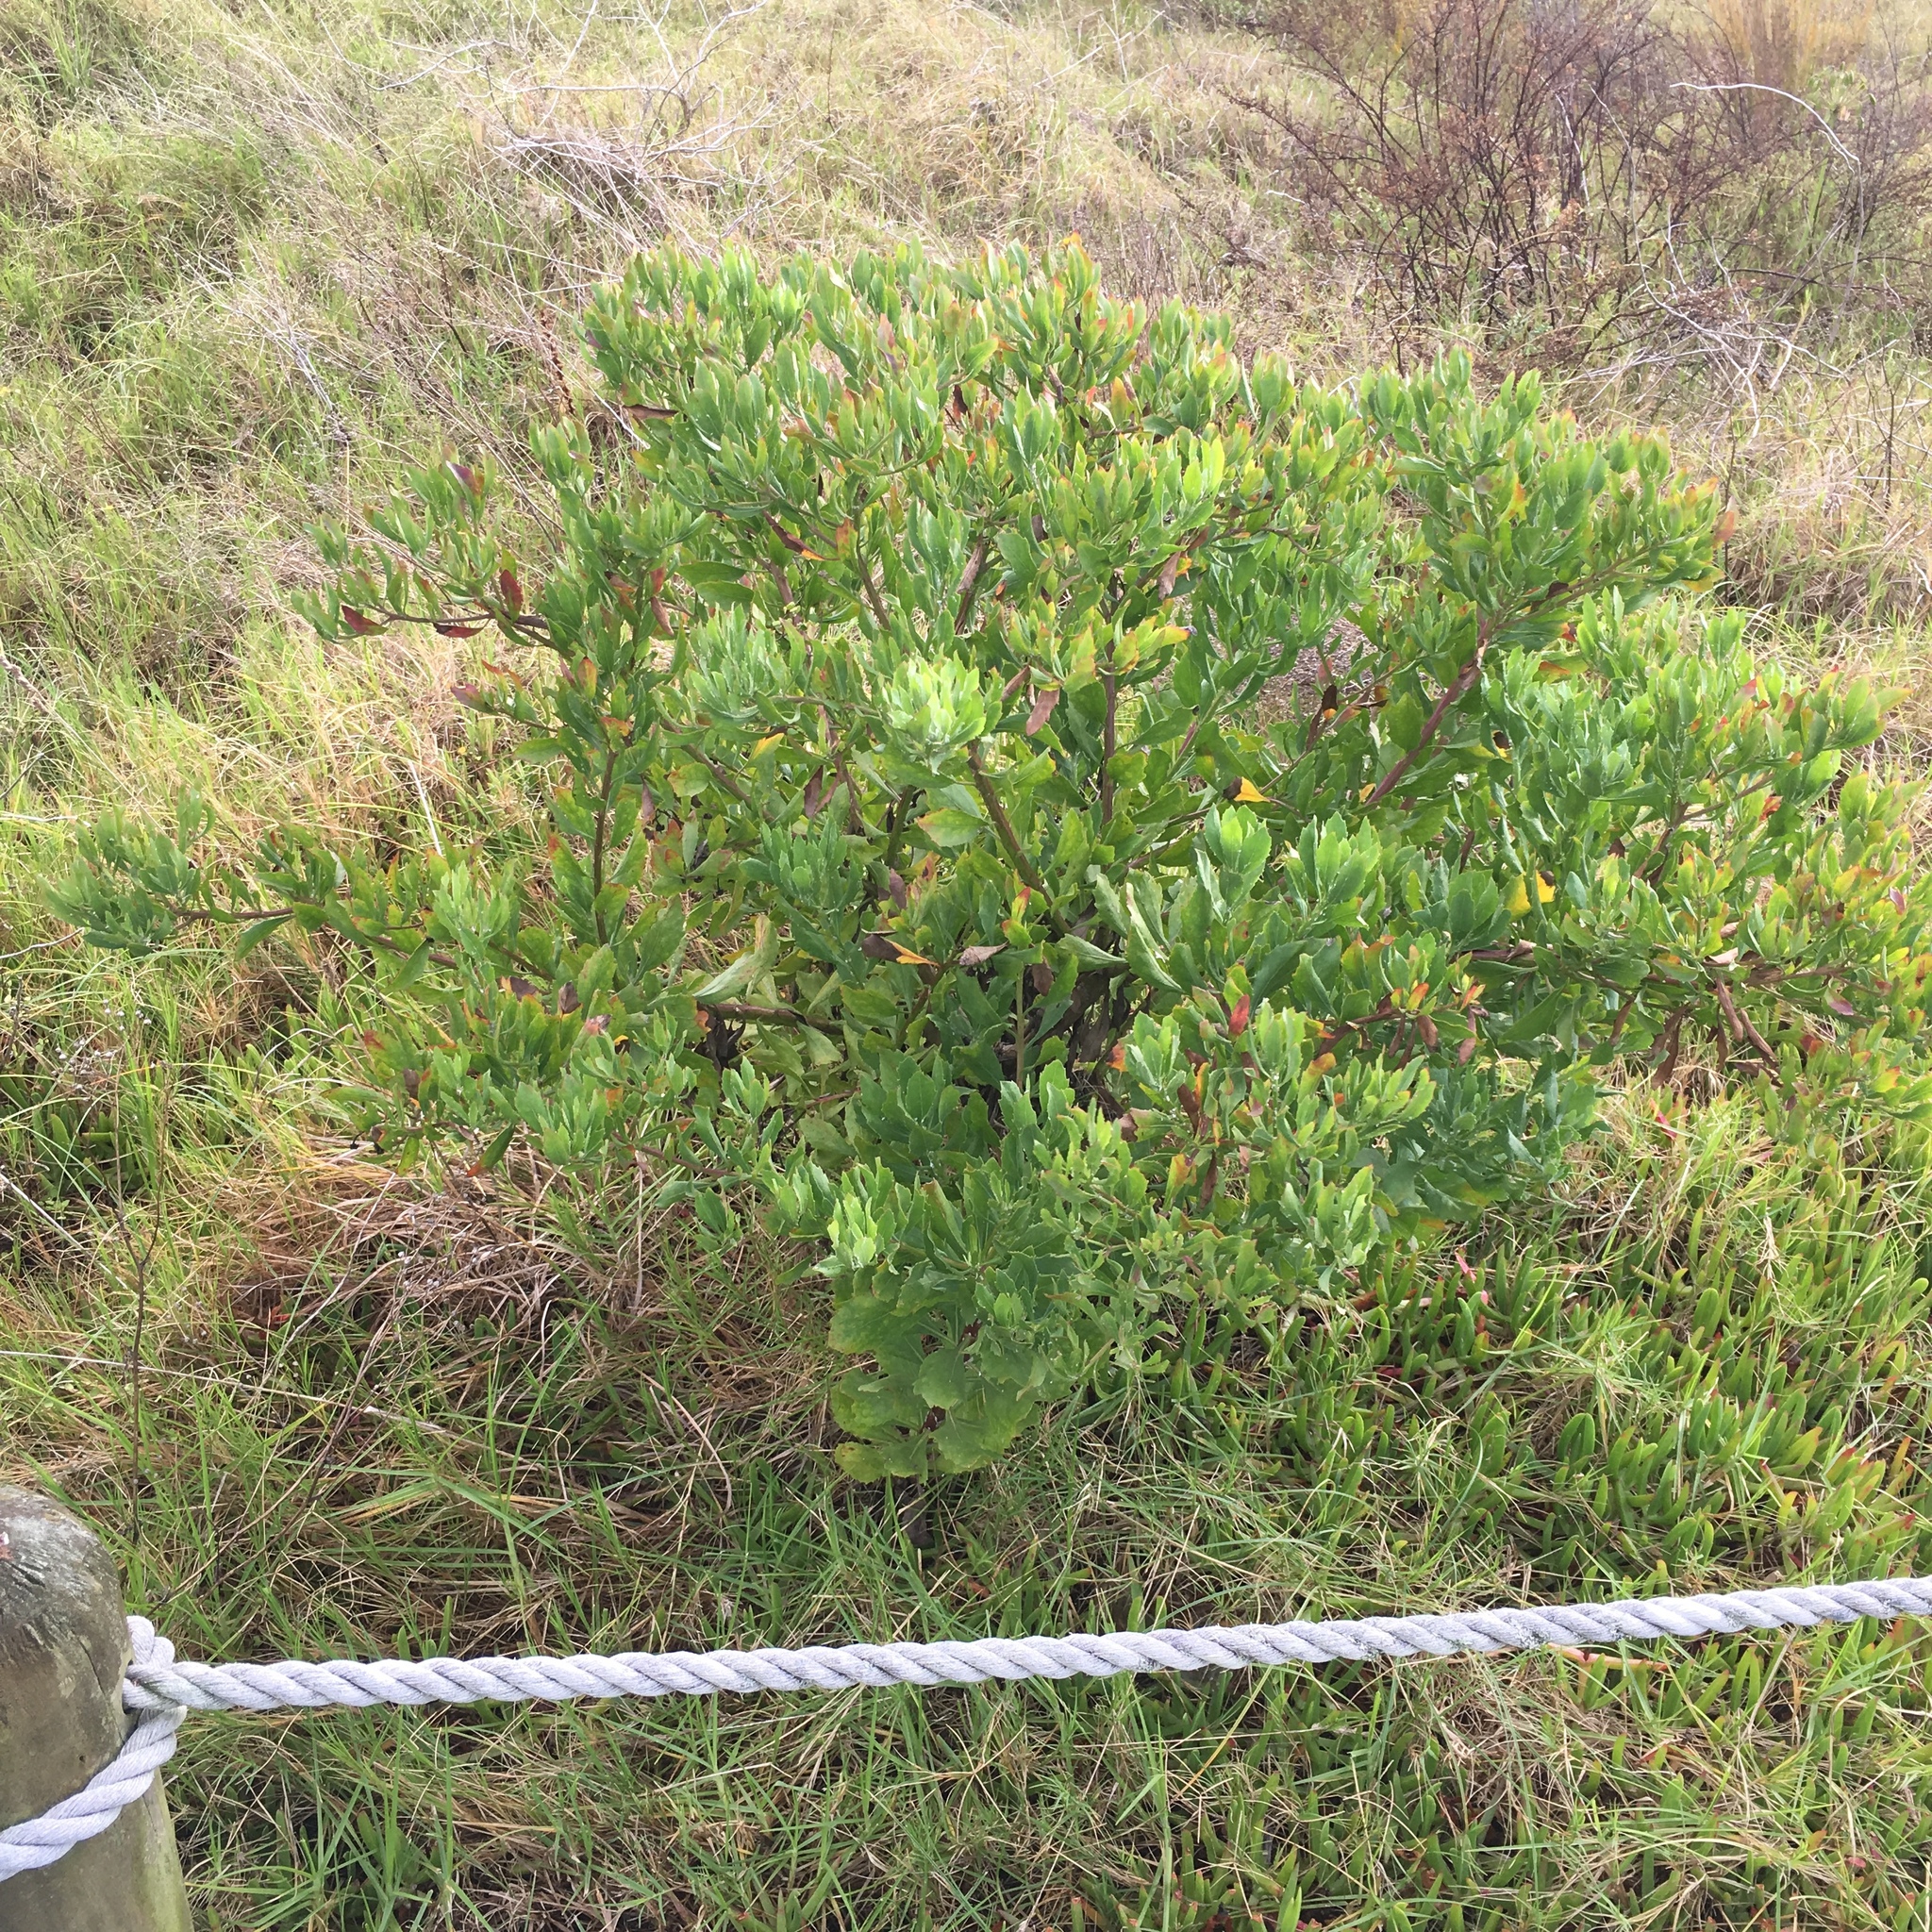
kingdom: Plantae
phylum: Tracheophyta
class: Magnoliopsida
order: Asterales
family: Asteraceae
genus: Osteospermum
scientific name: Osteospermum moniliferum
